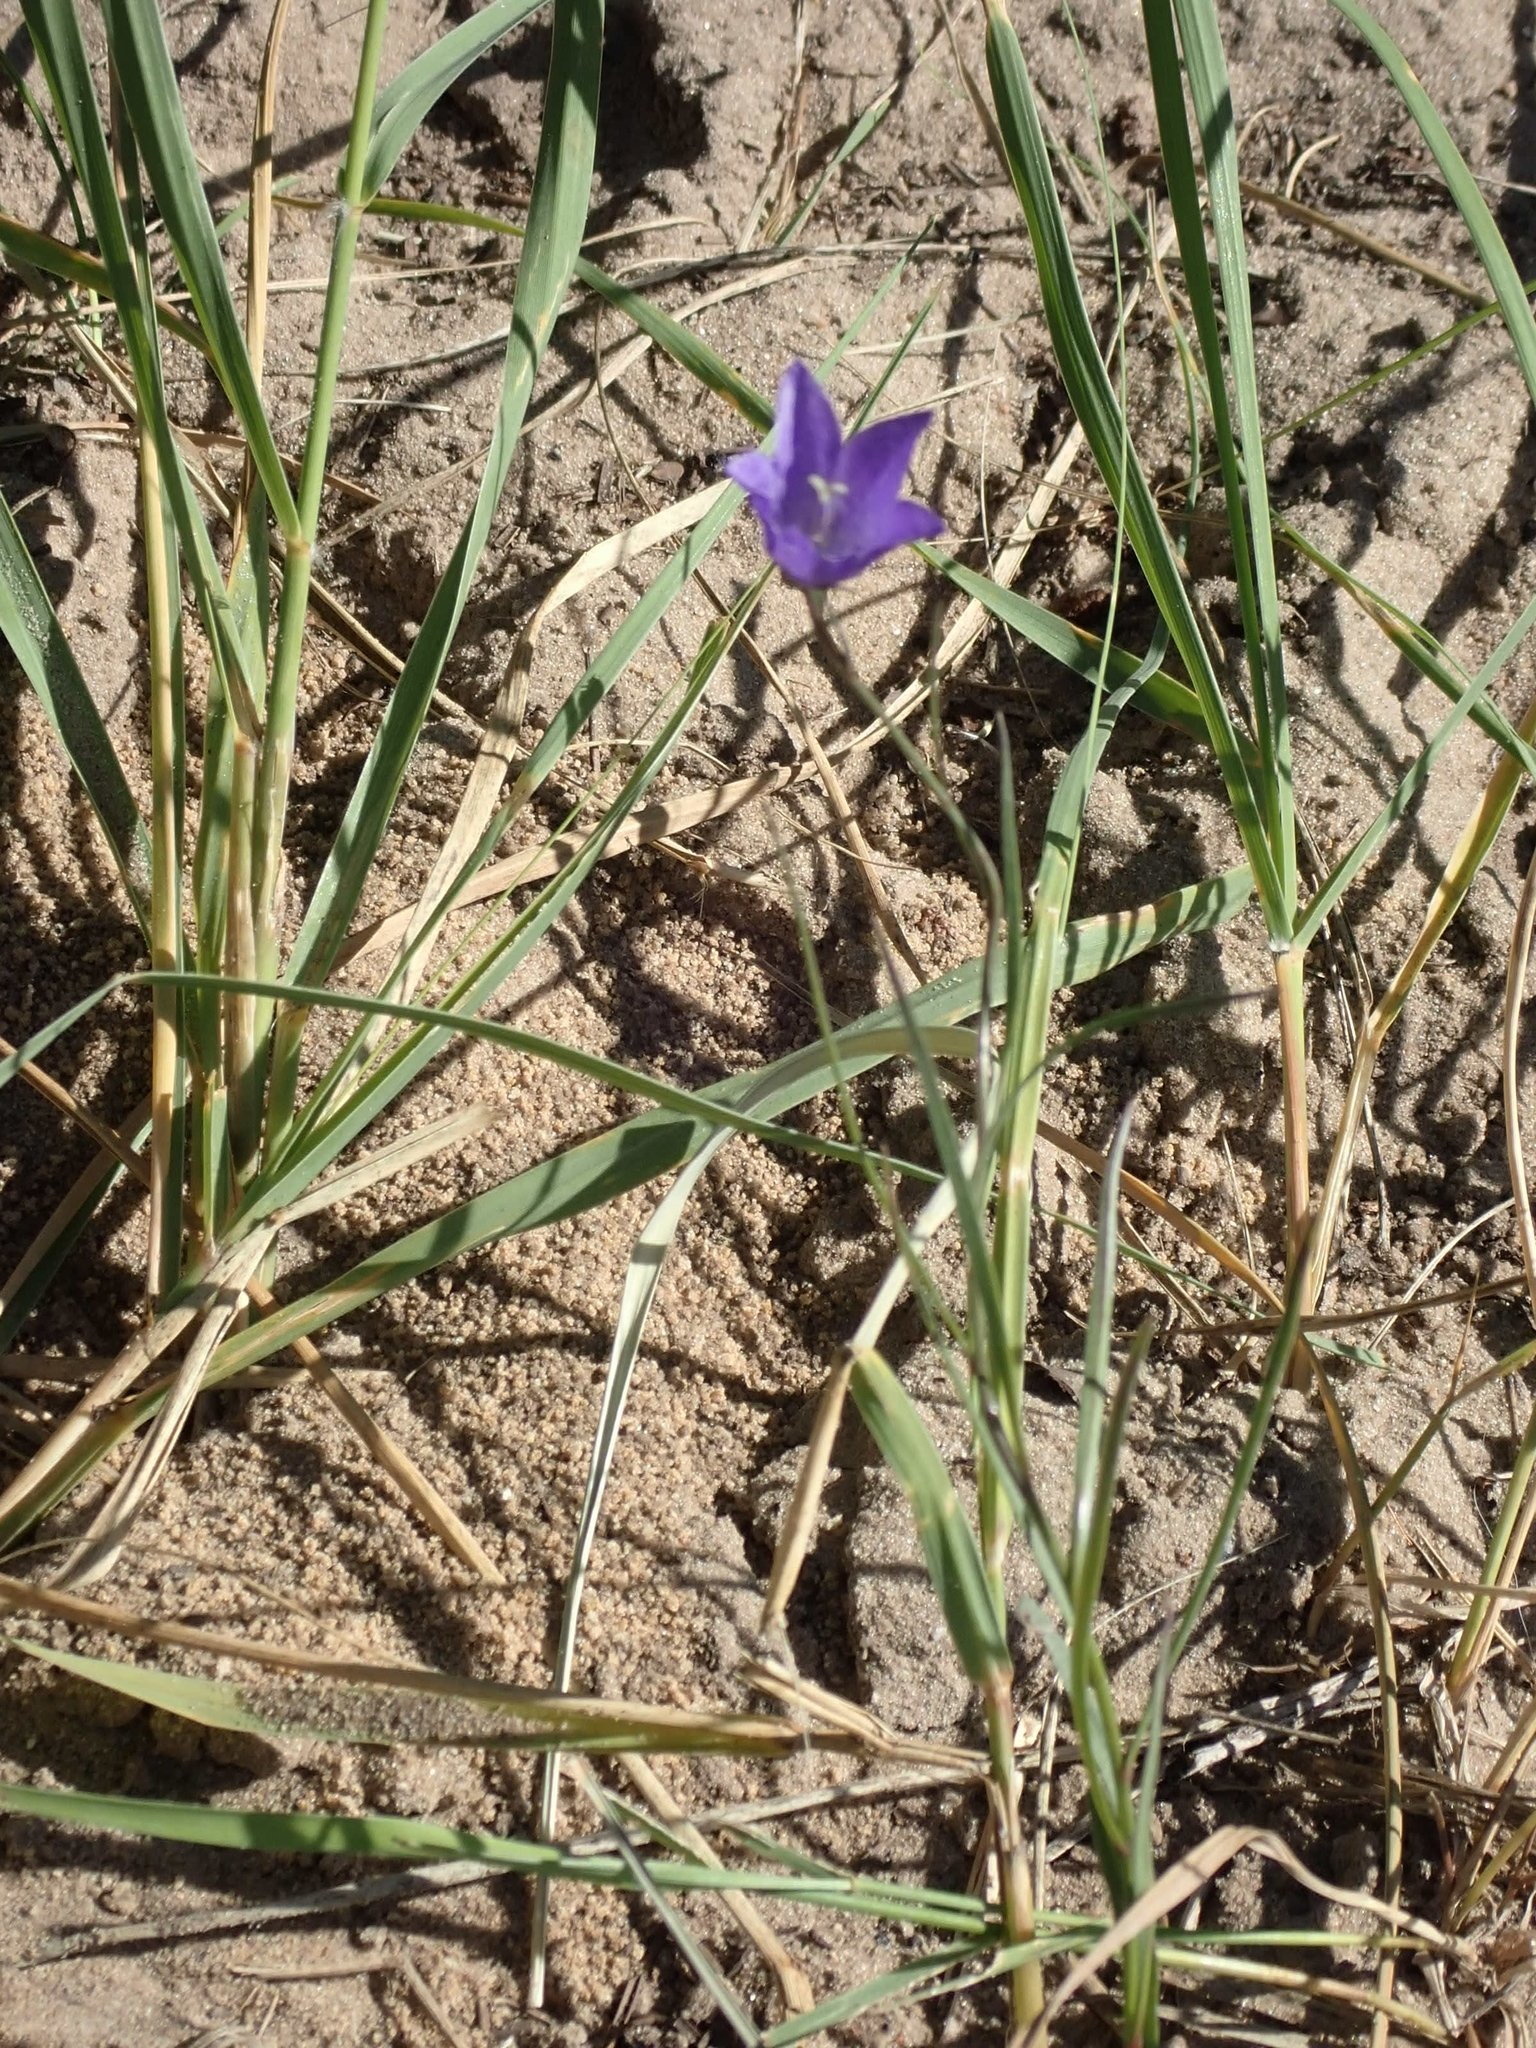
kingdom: Plantae
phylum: Tracheophyta
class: Magnoliopsida
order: Asterales
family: Campanulaceae
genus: Campanula
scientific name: Campanula petiolata
